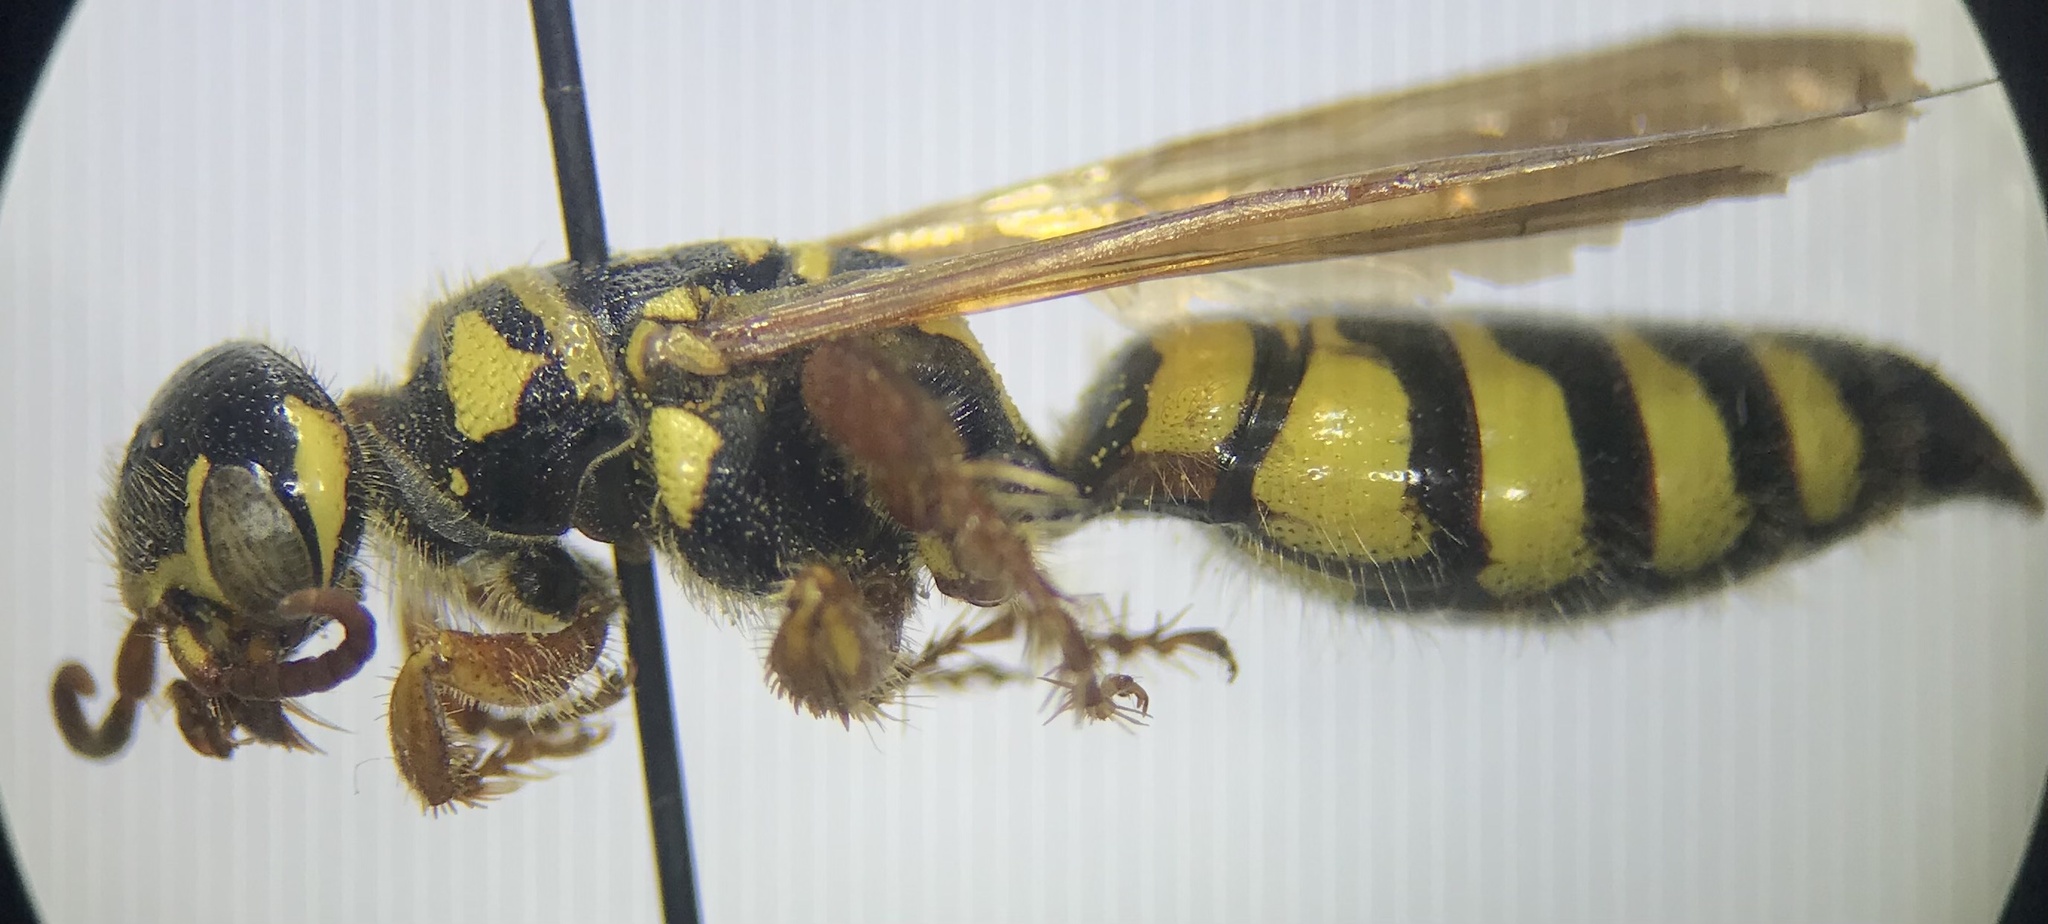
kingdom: Animalia
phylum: Arthropoda
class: Insecta
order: Hymenoptera
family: Tiphiidae
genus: Myzinum
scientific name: Myzinum quinquecinctum
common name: Five-banded thynnid wasp
